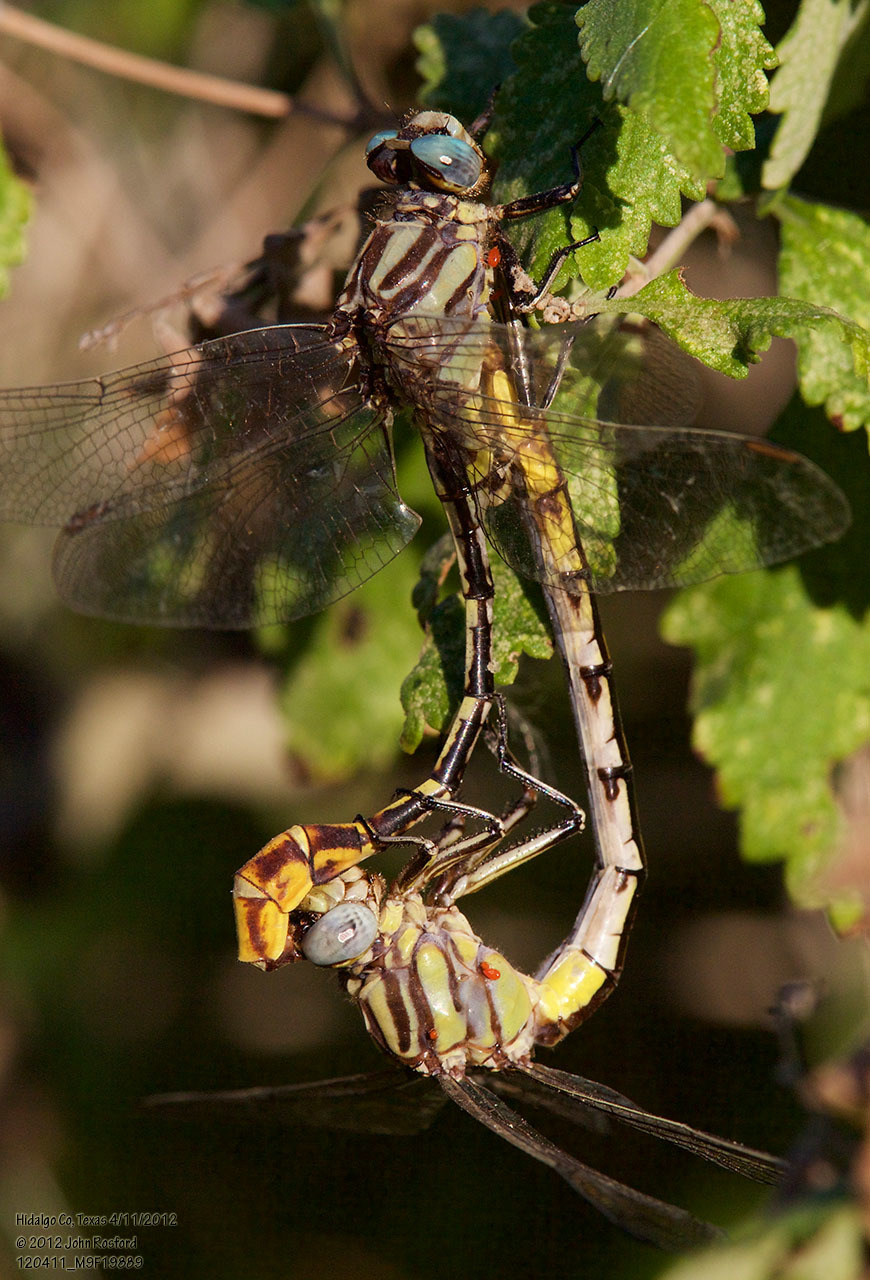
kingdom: Animalia
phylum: Arthropoda
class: Insecta
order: Odonata
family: Gomphidae
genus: Phanogomphus
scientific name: Phanogomphus militaris
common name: Sulphur-tipped clubtail
